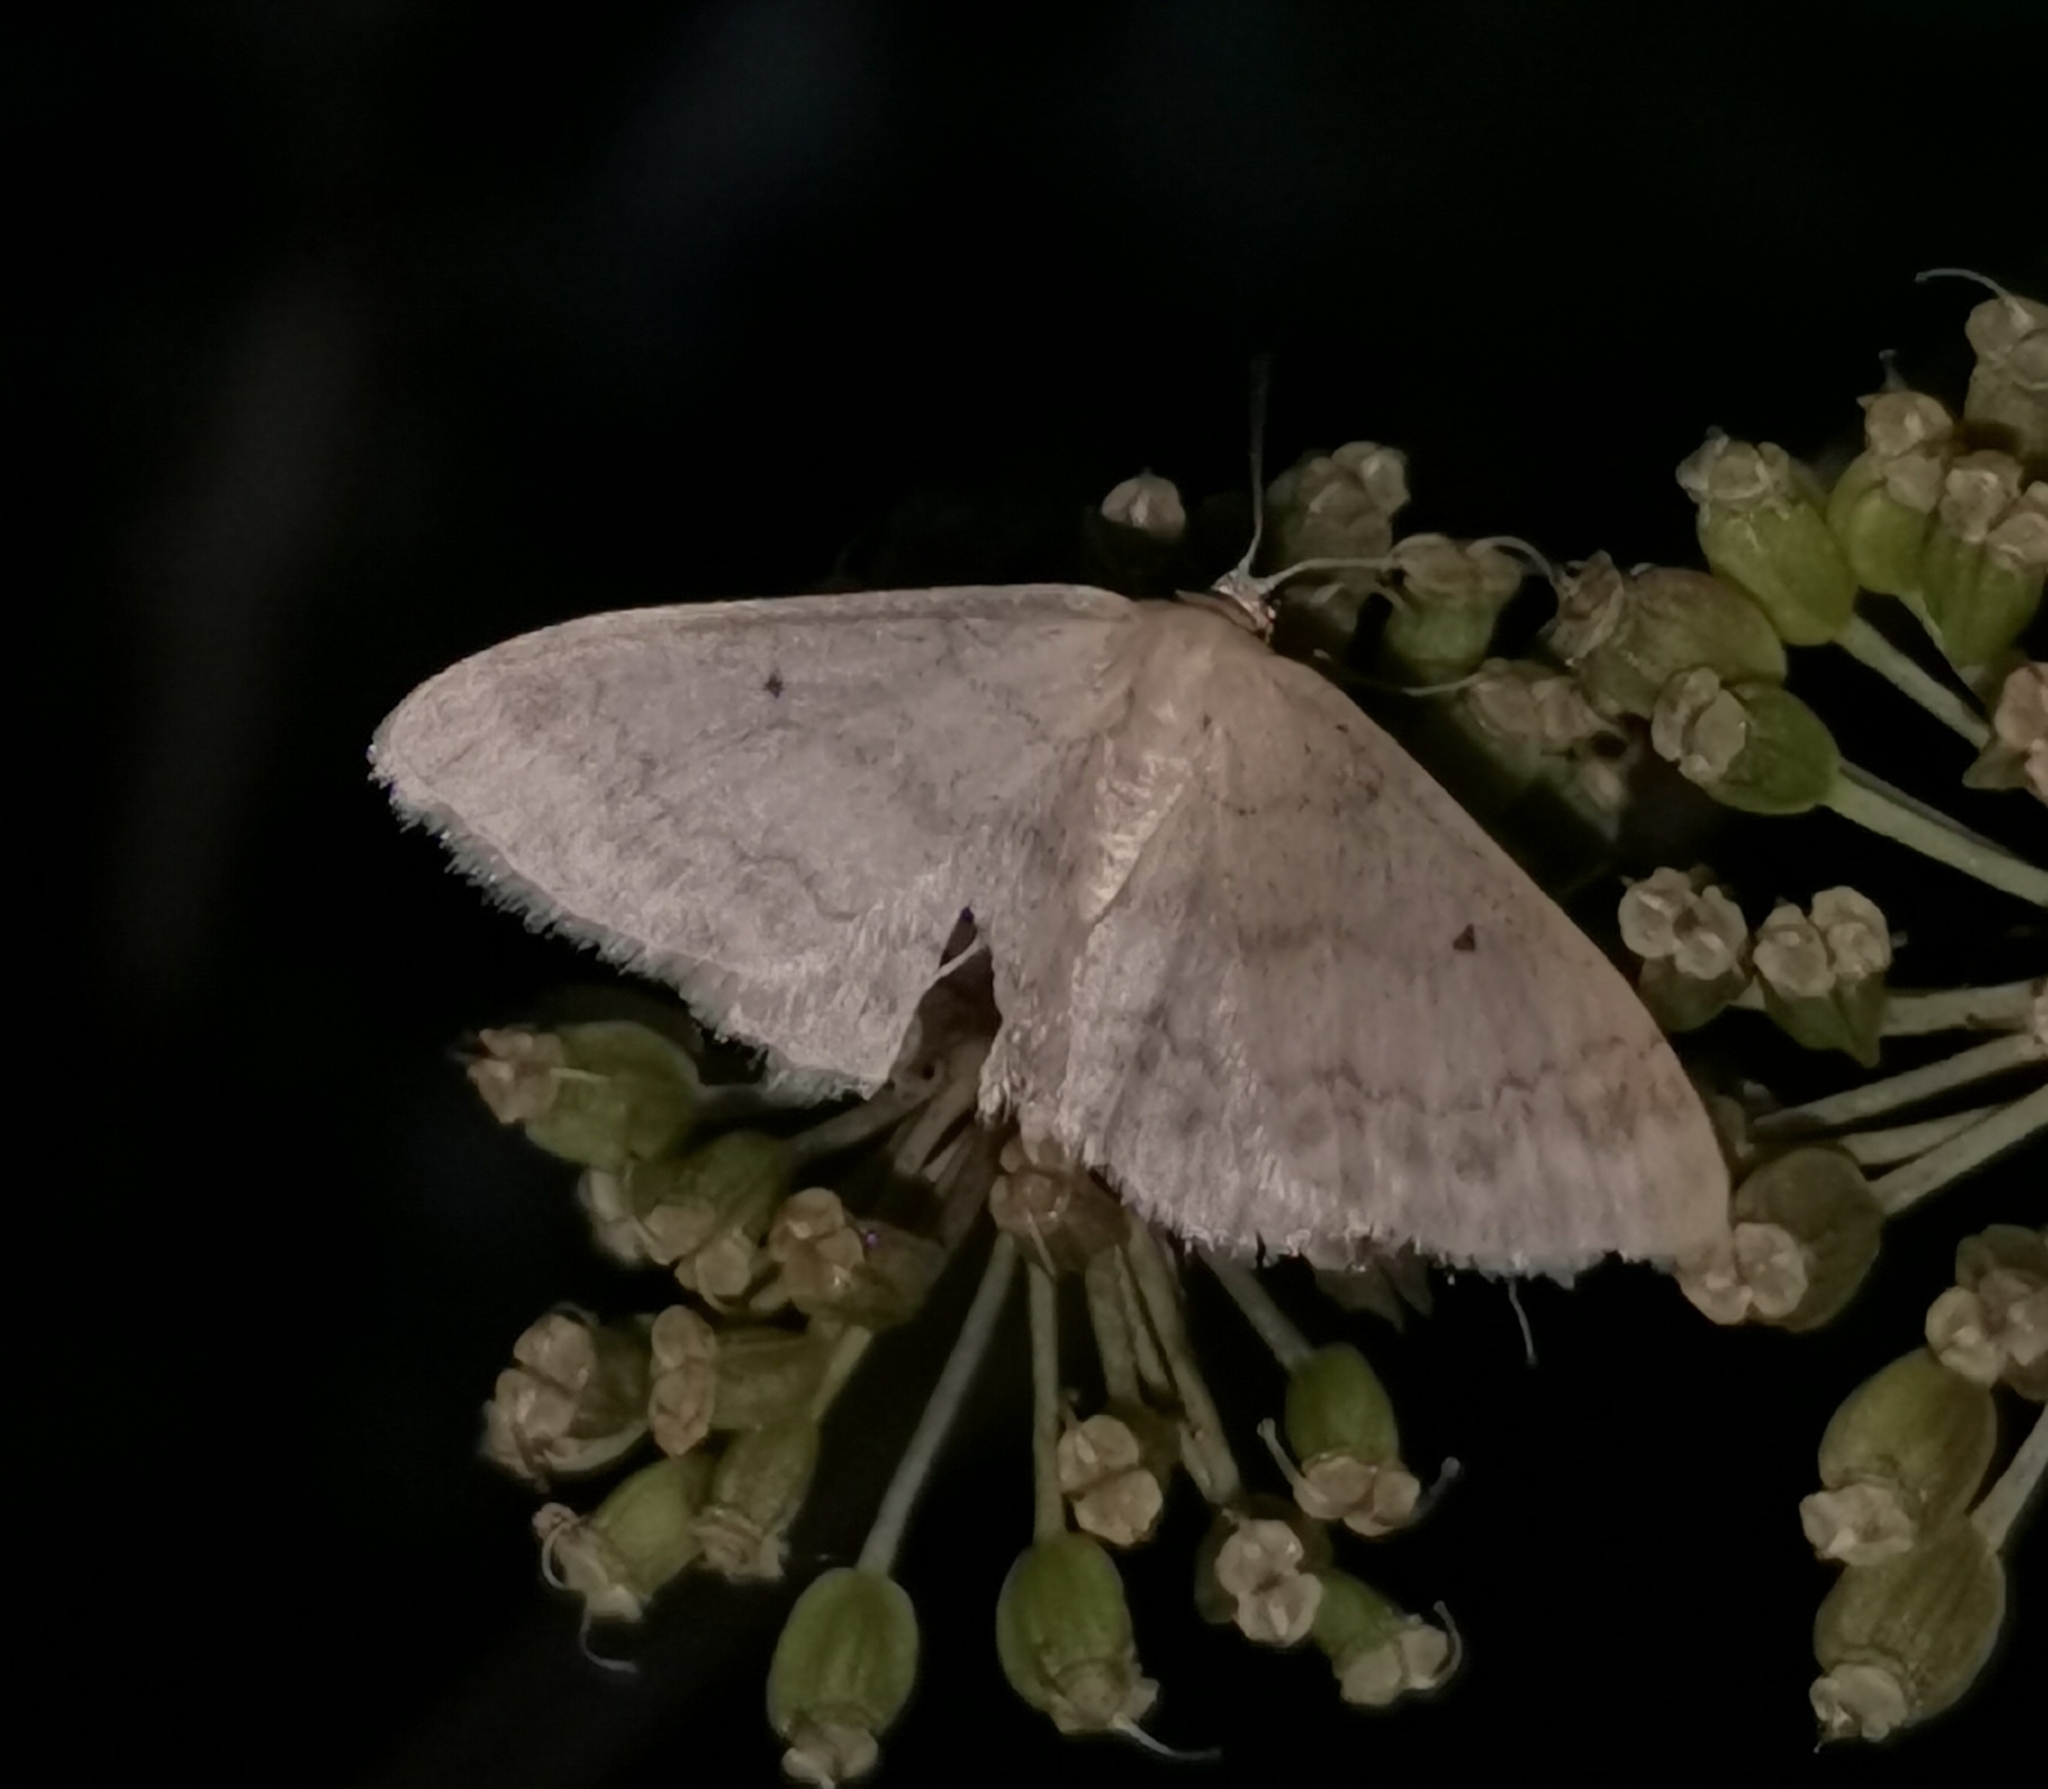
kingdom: Animalia
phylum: Arthropoda
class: Insecta
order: Lepidoptera
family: Geometridae
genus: Idaea
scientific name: Idaea biselata
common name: Small fan-footed wave
